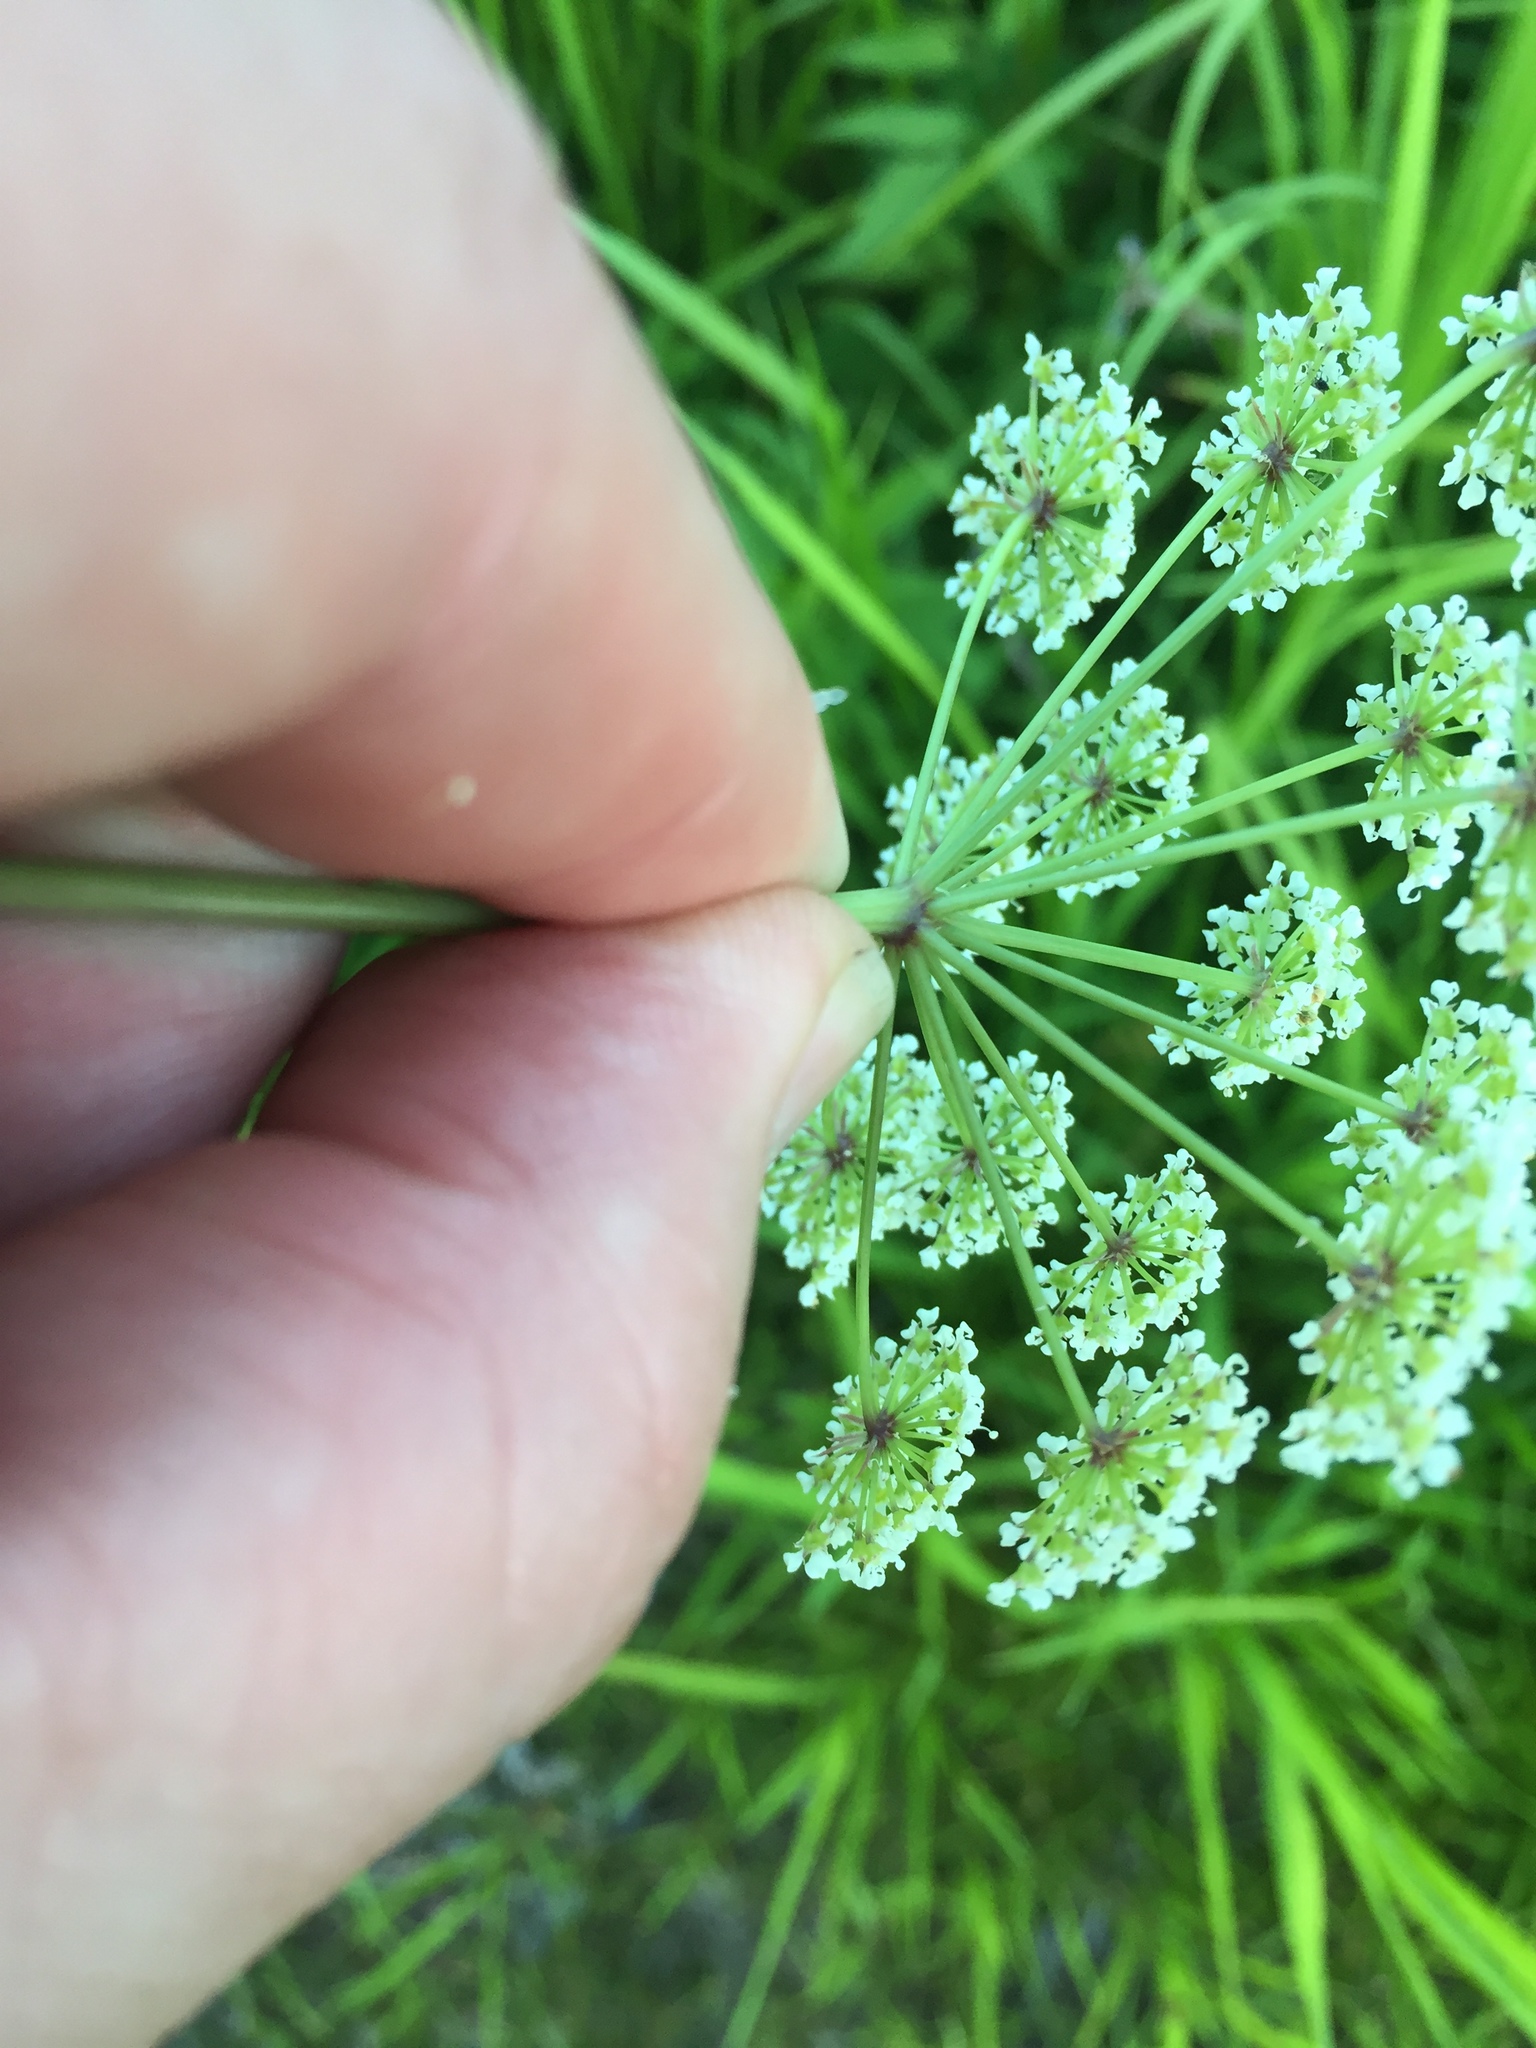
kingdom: Plantae
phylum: Tracheophyta
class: Magnoliopsida
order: Apiales
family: Apiaceae
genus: Cicuta
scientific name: Cicuta maculata
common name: Spotted cowbane
